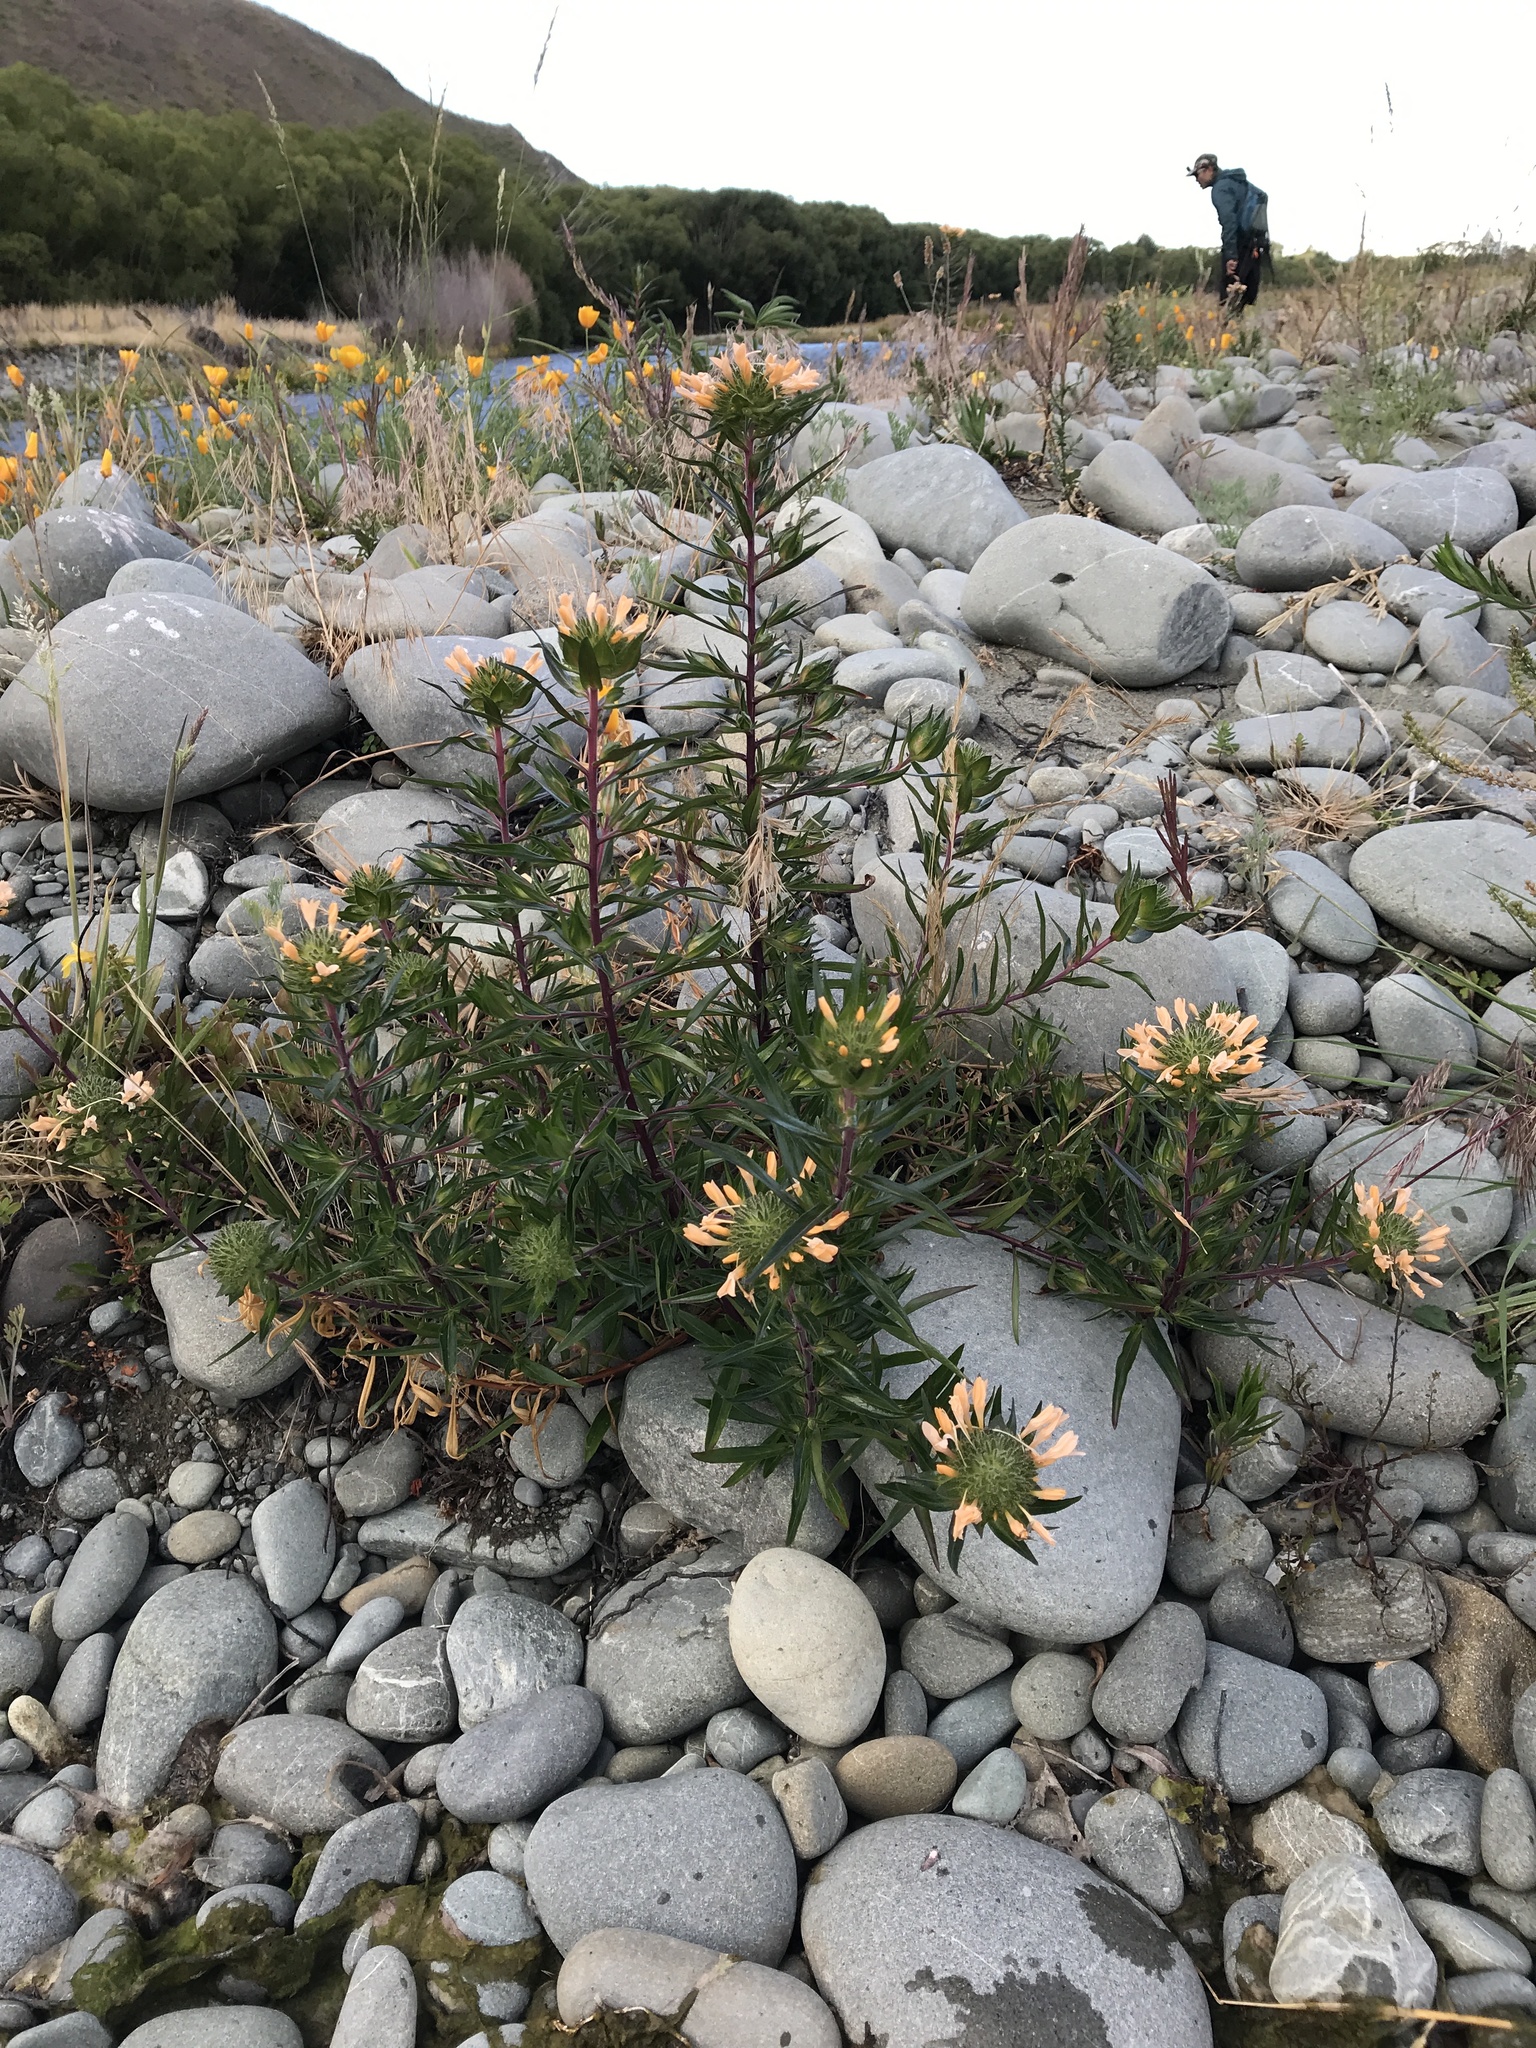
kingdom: Plantae
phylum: Tracheophyta
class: Magnoliopsida
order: Ericales
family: Polemoniaceae
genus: Collomia
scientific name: Collomia grandiflora
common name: California strawflower
